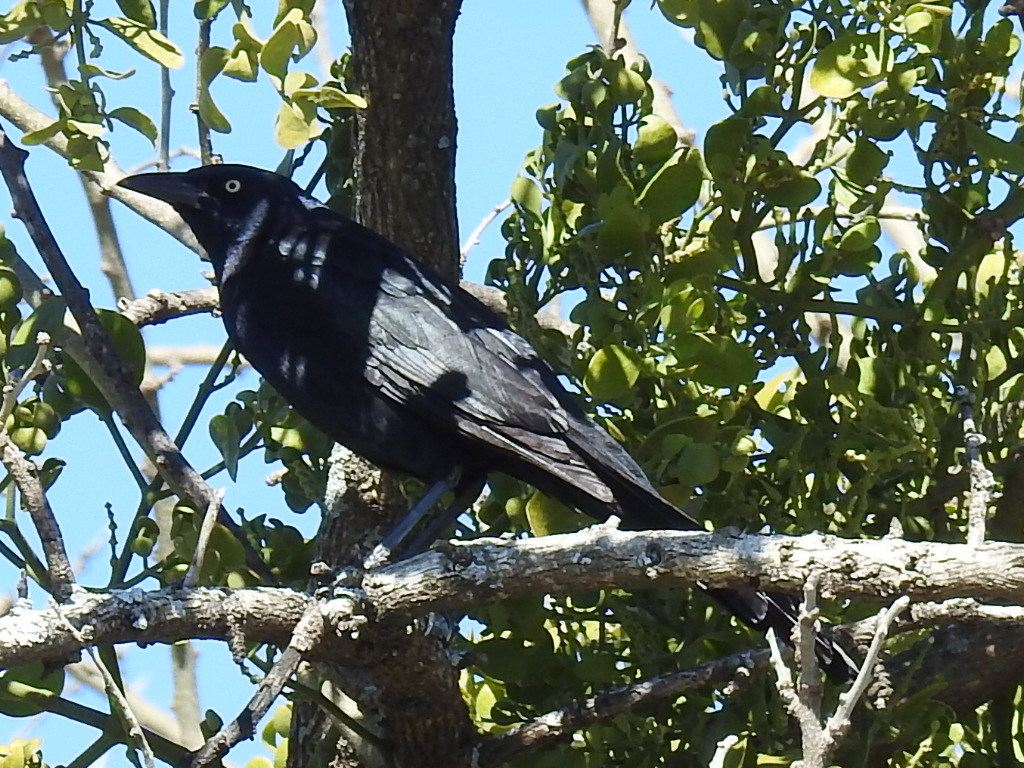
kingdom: Animalia
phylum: Chordata
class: Aves
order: Passeriformes
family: Icteridae
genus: Quiscalus
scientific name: Quiscalus mexicanus
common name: Great-tailed grackle
